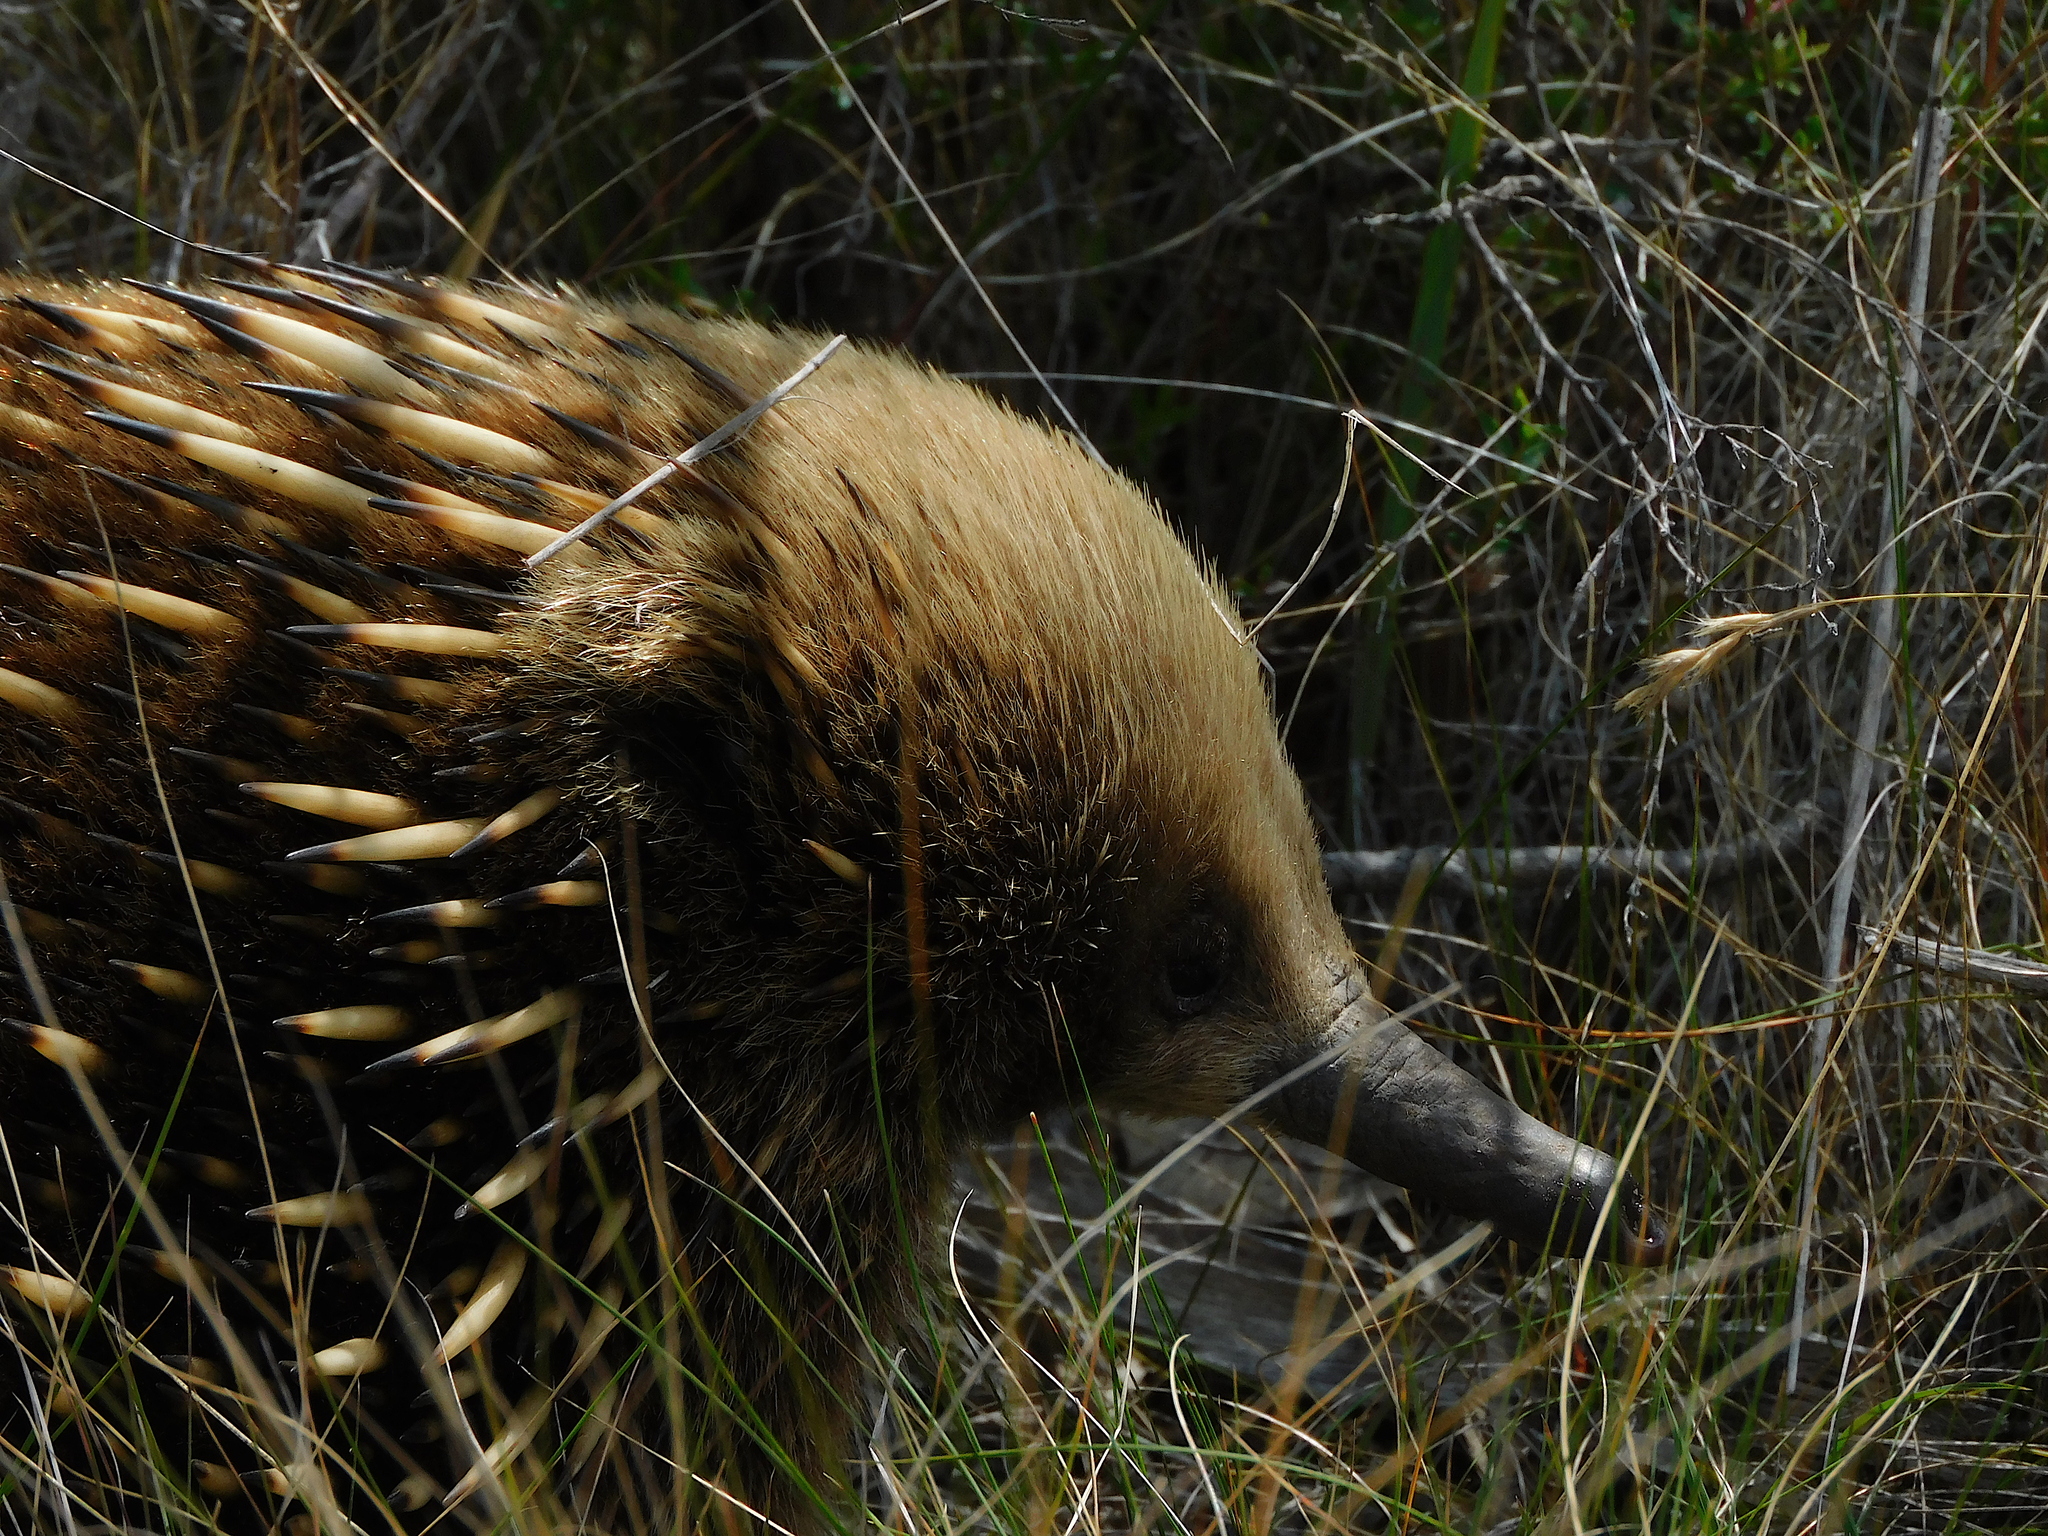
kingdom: Animalia
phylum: Chordata
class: Mammalia
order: Monotremata
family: Tachyglossidae
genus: Tachyglossus
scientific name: Tachyglossus aculeatus
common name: Short-beaked echidna
